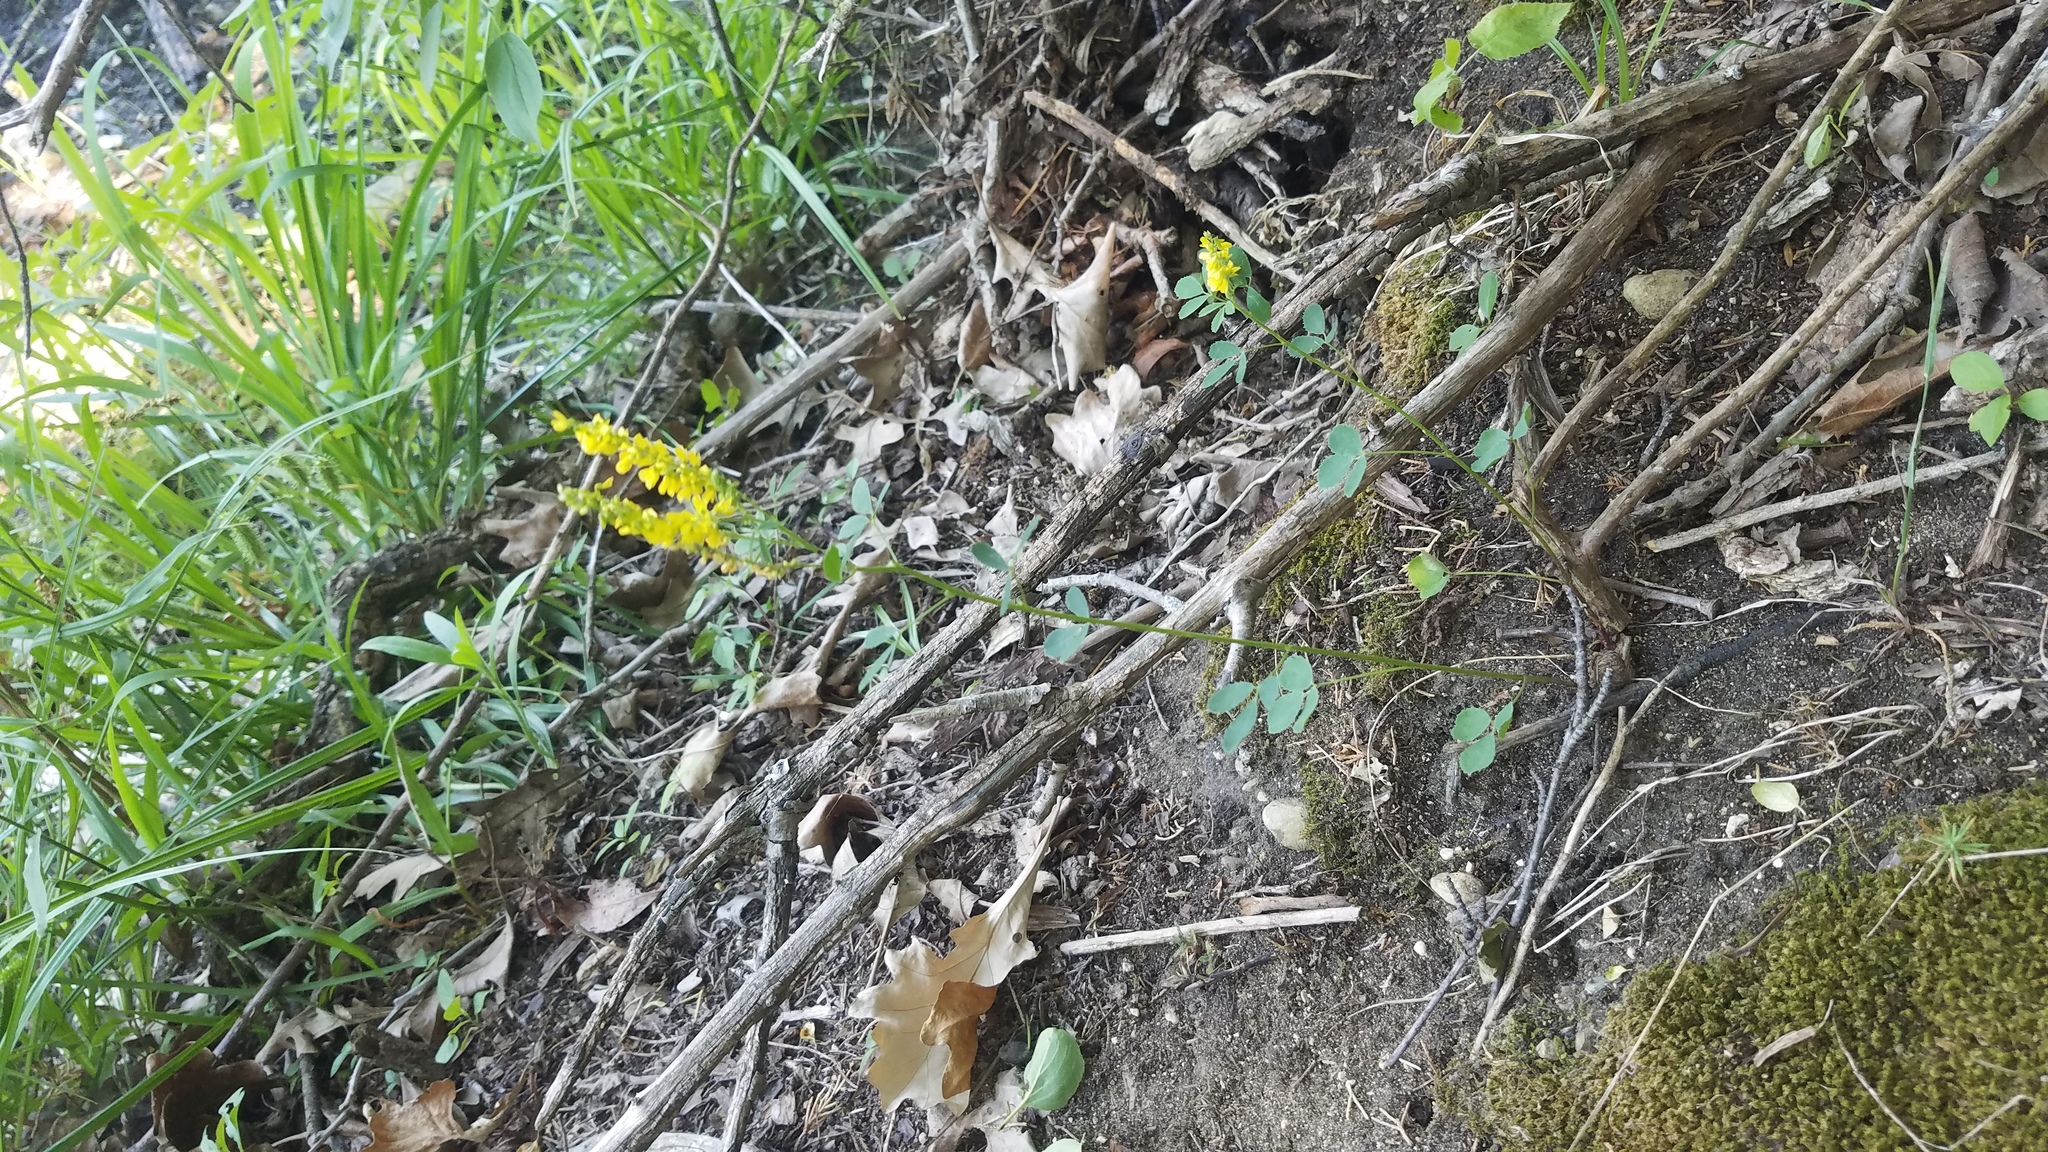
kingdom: Plantae
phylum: Tracheophyta
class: Magnoliopsida
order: Fabales
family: Fabaceae
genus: Melilotus
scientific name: Melilotus officinalis
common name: Sweetclover
